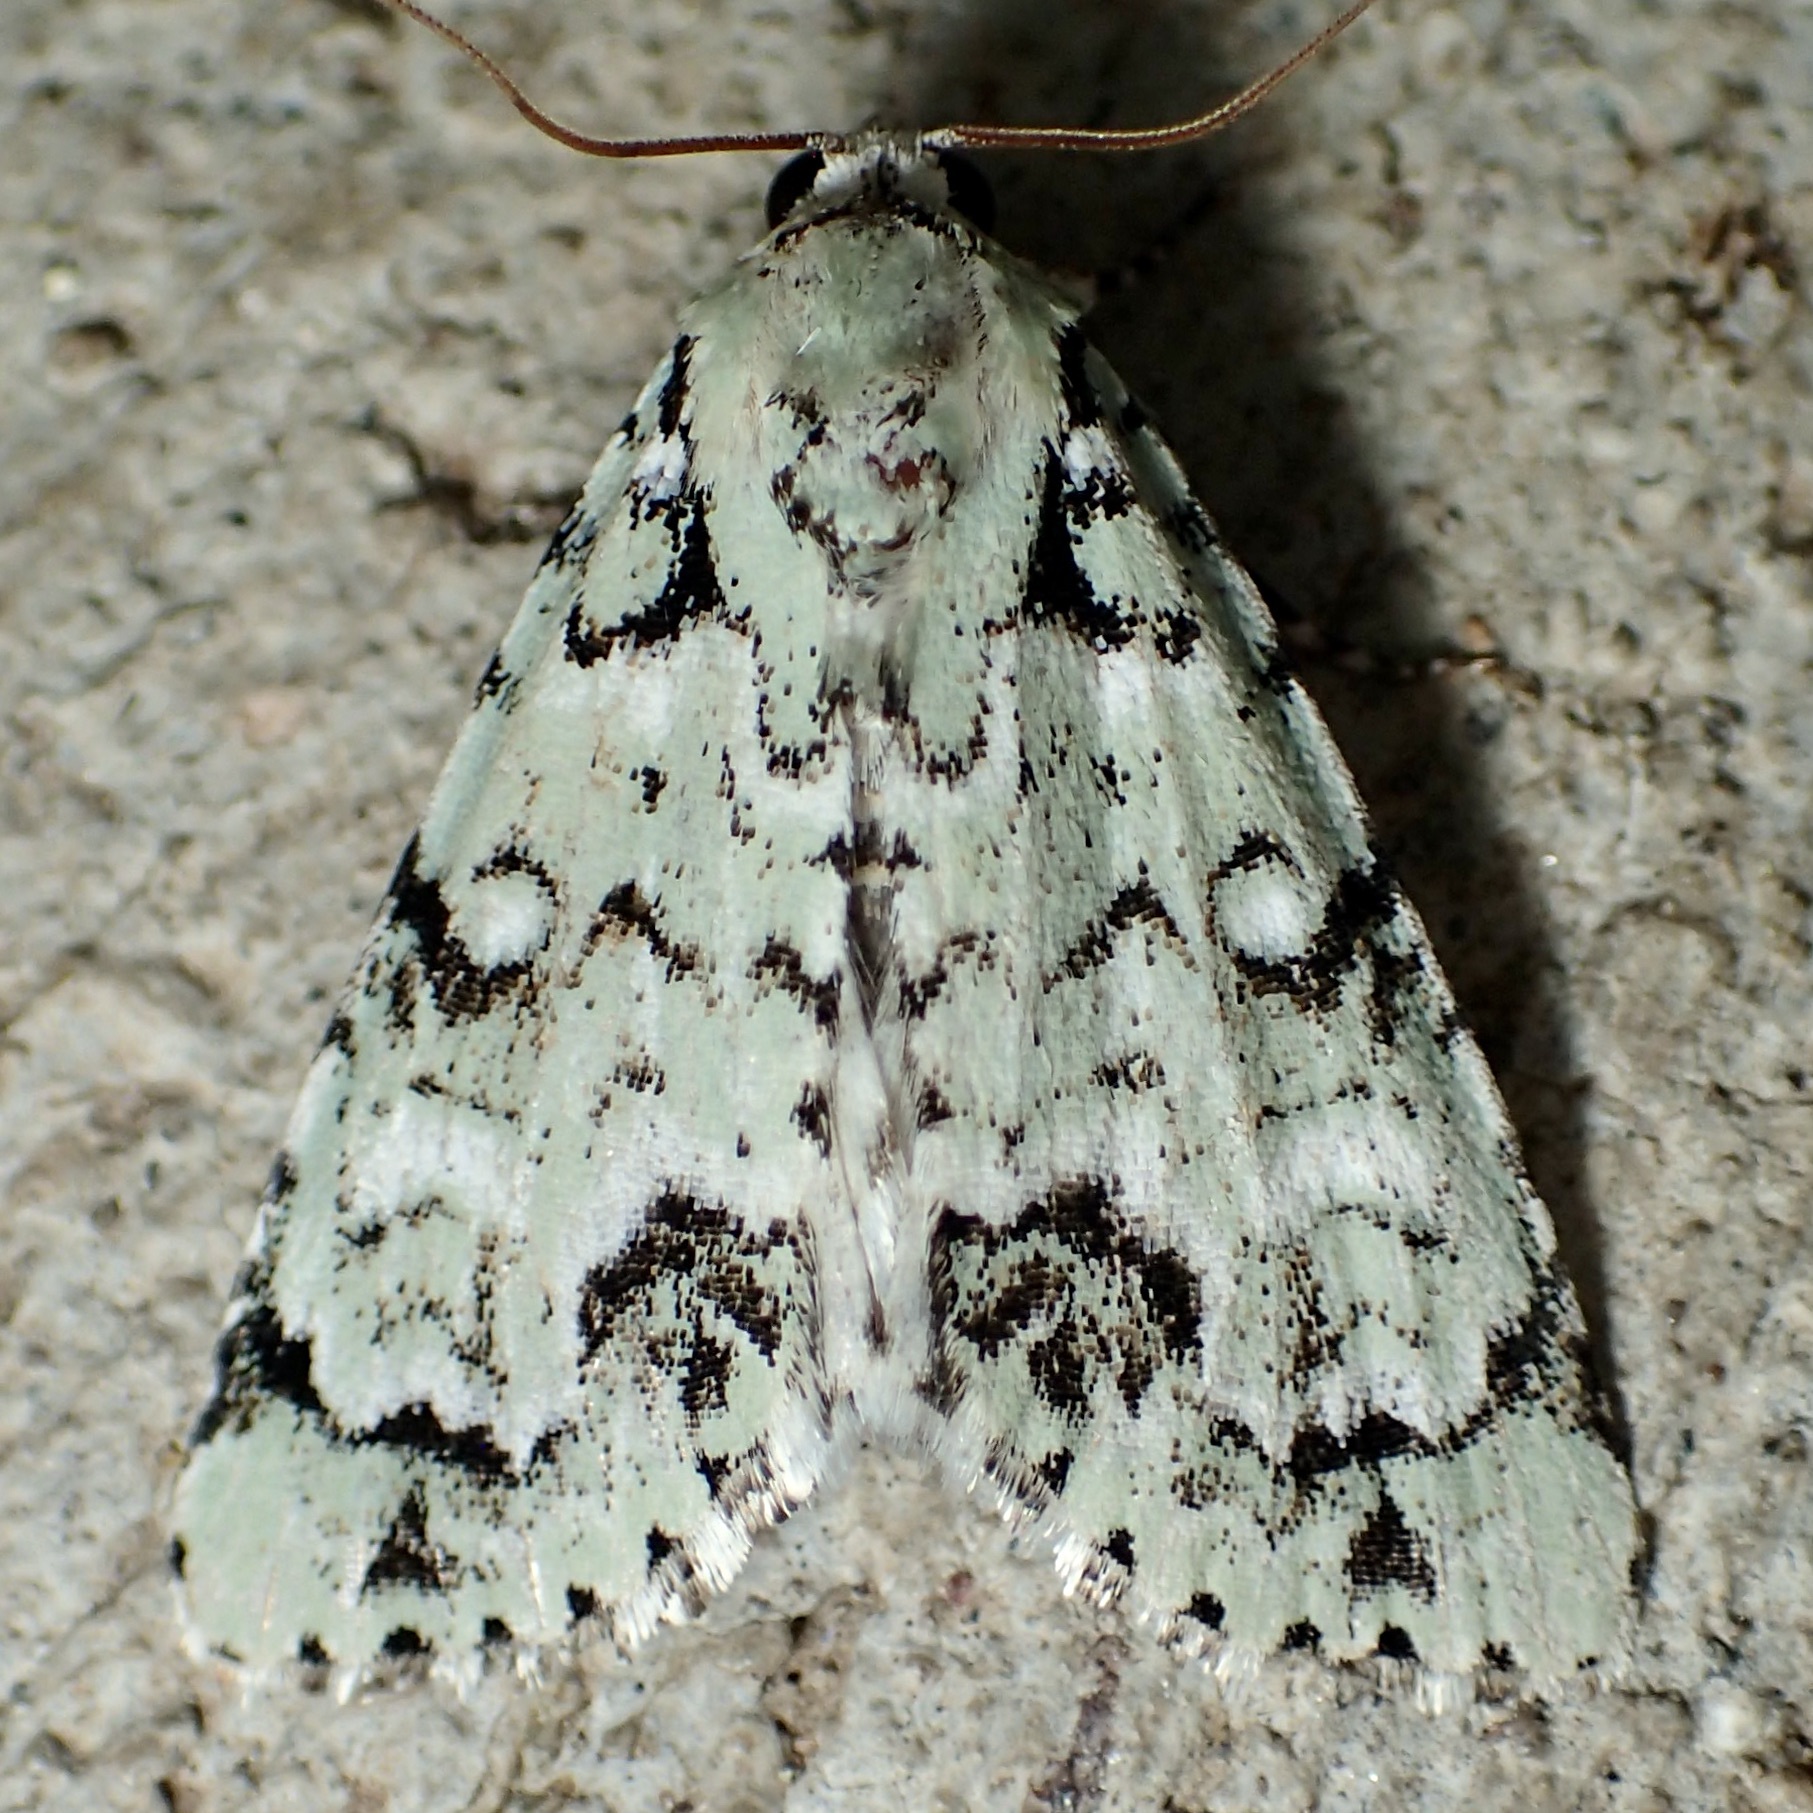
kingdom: Animalia
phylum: Arthropoda
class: Insecta
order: Lepidoptera
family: Noctuidae
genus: Chloronycta
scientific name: Chloronycta tybo
